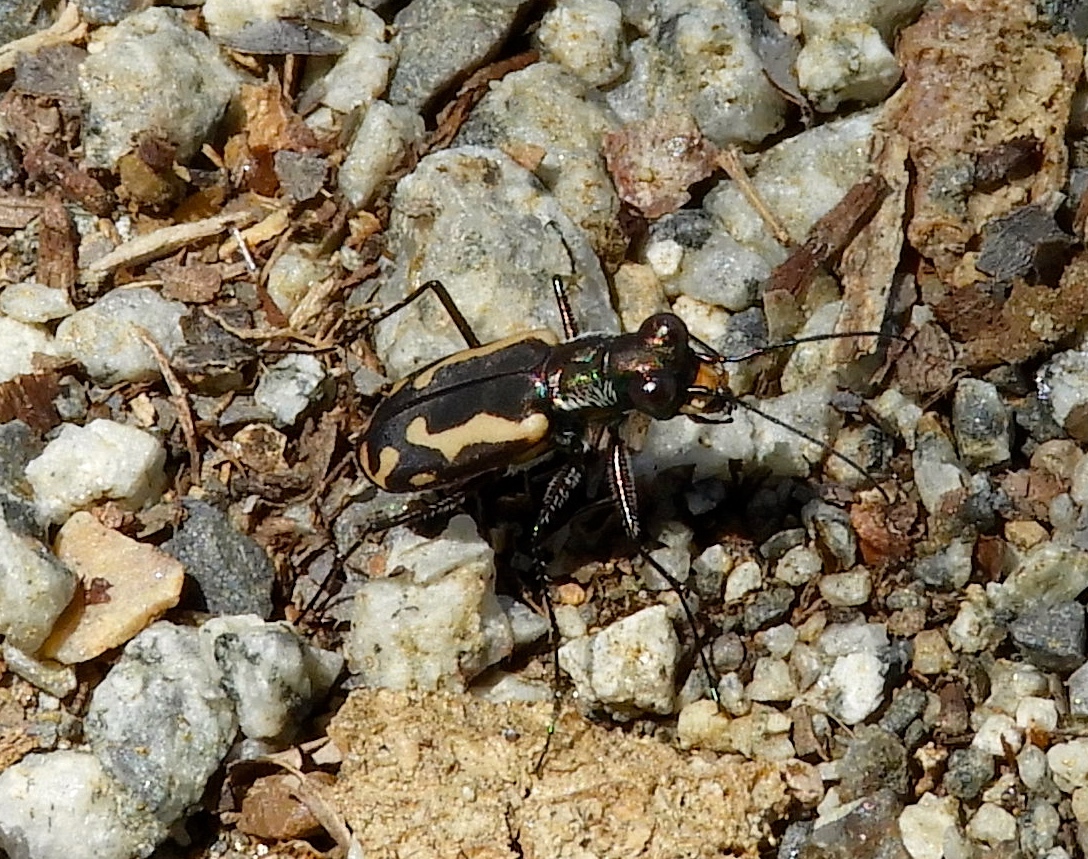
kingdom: Animalia
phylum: Arthropoda
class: Insecta
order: Coleoptera
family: Carabidae
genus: Cicindela
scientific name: Cicindela hydrophoba
